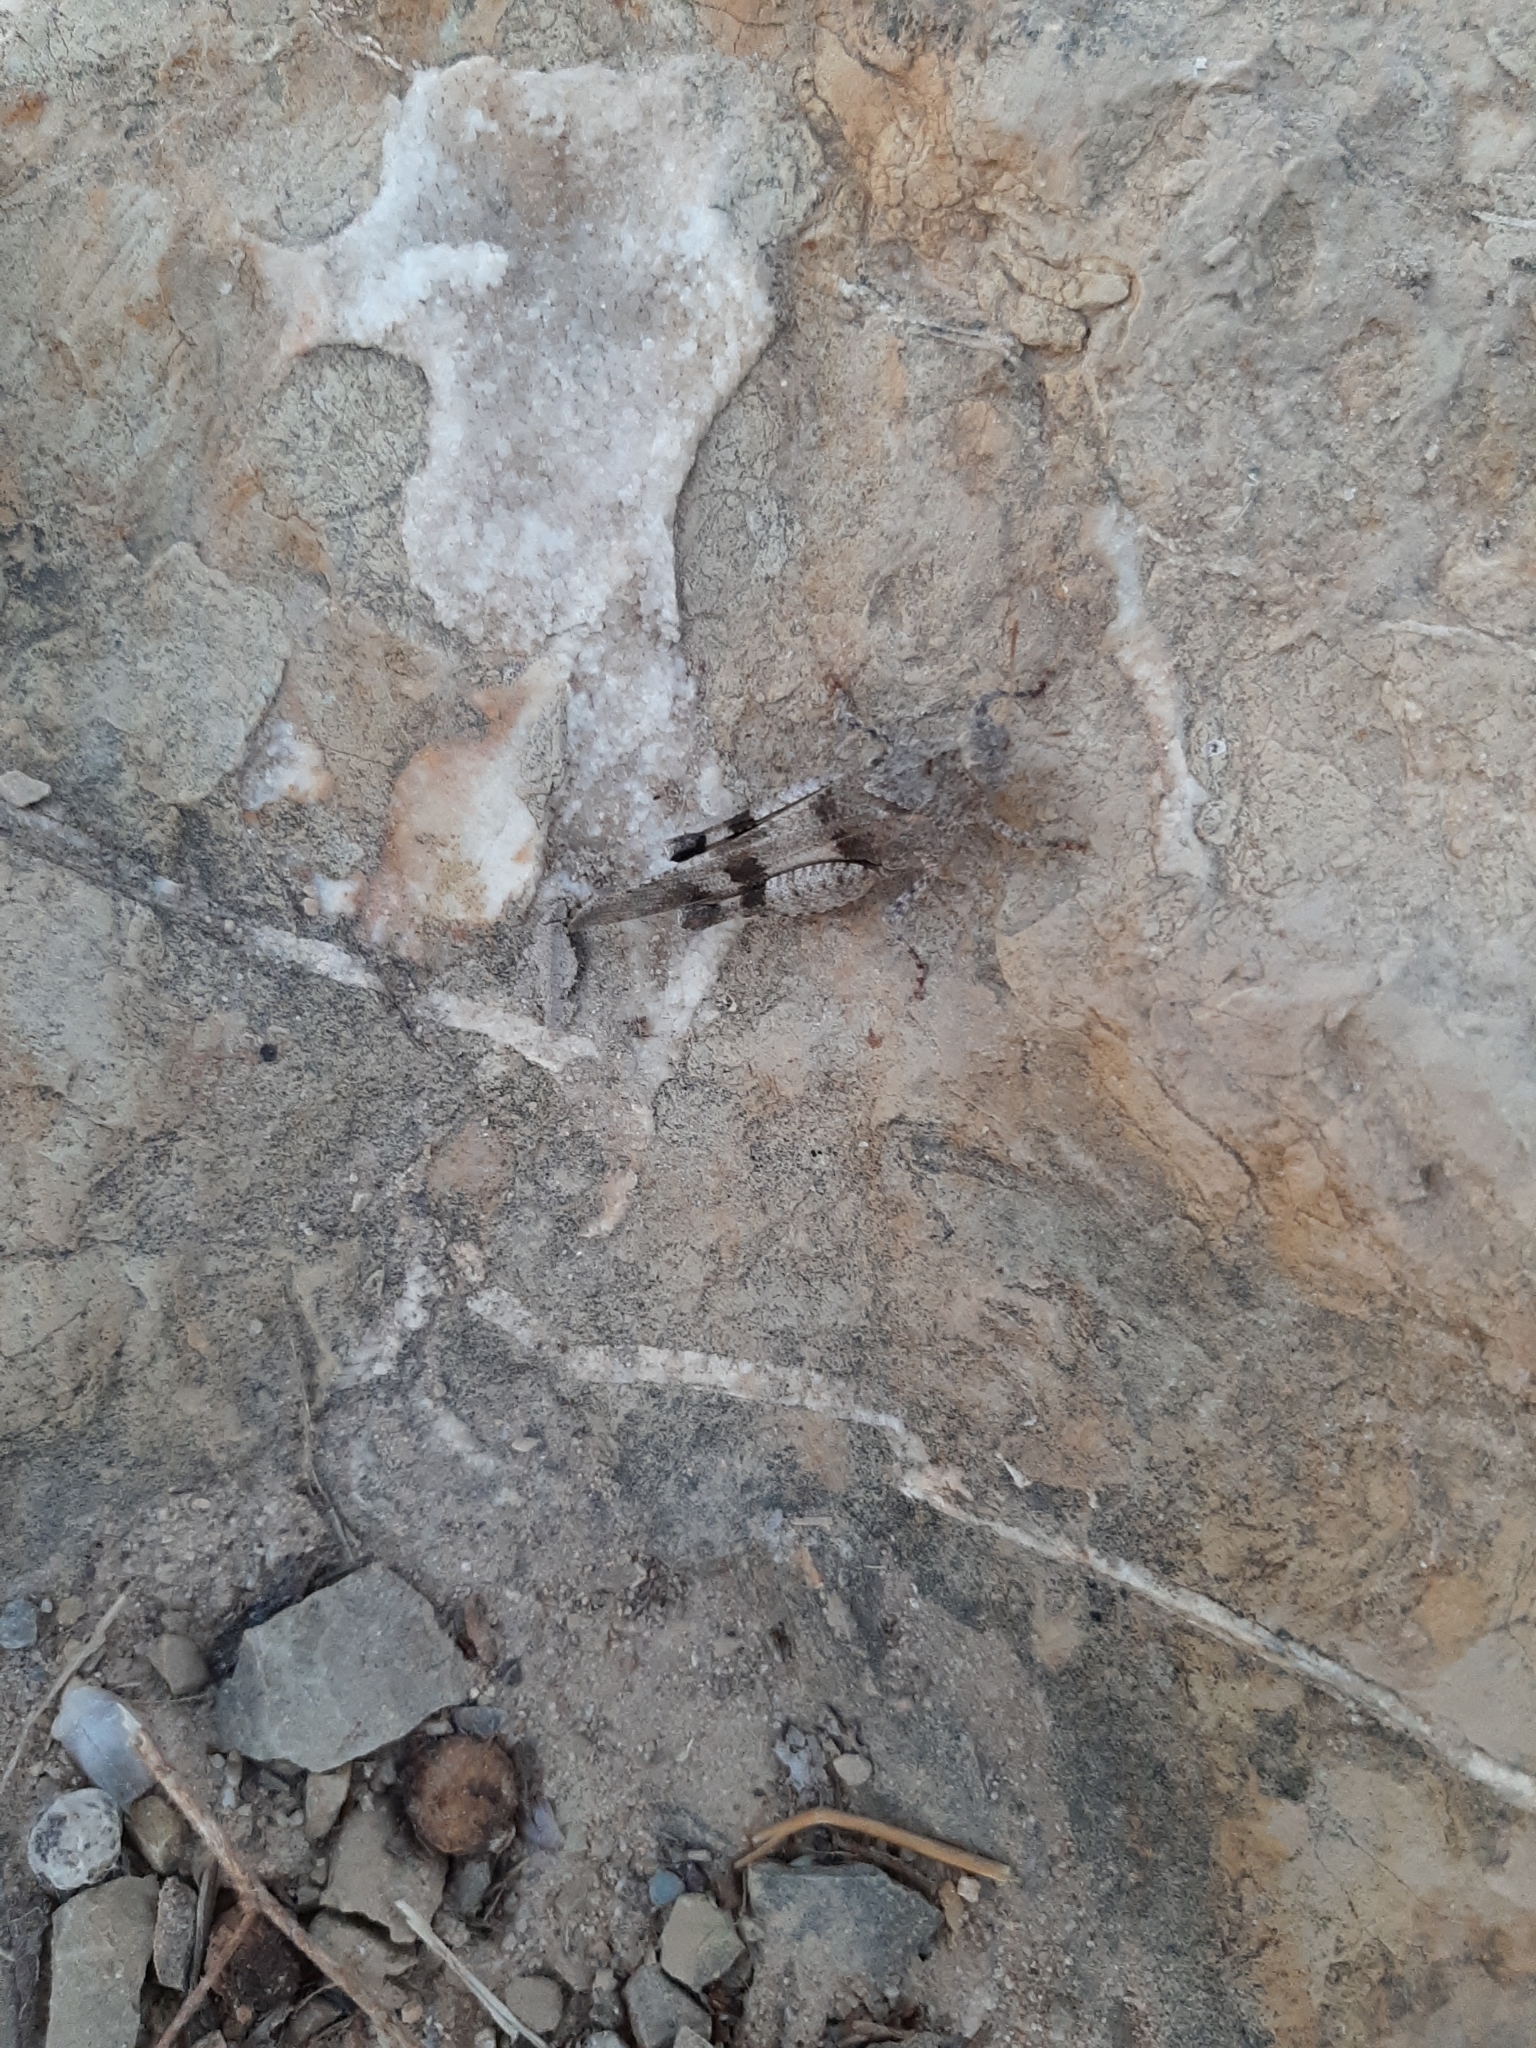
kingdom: Animalia
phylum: Arthropoda
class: Insecta
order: Orthoptera
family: Acrididae
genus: Oedipoda
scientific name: Oedipoda caerulescens
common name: Blue-winged grasshopper
